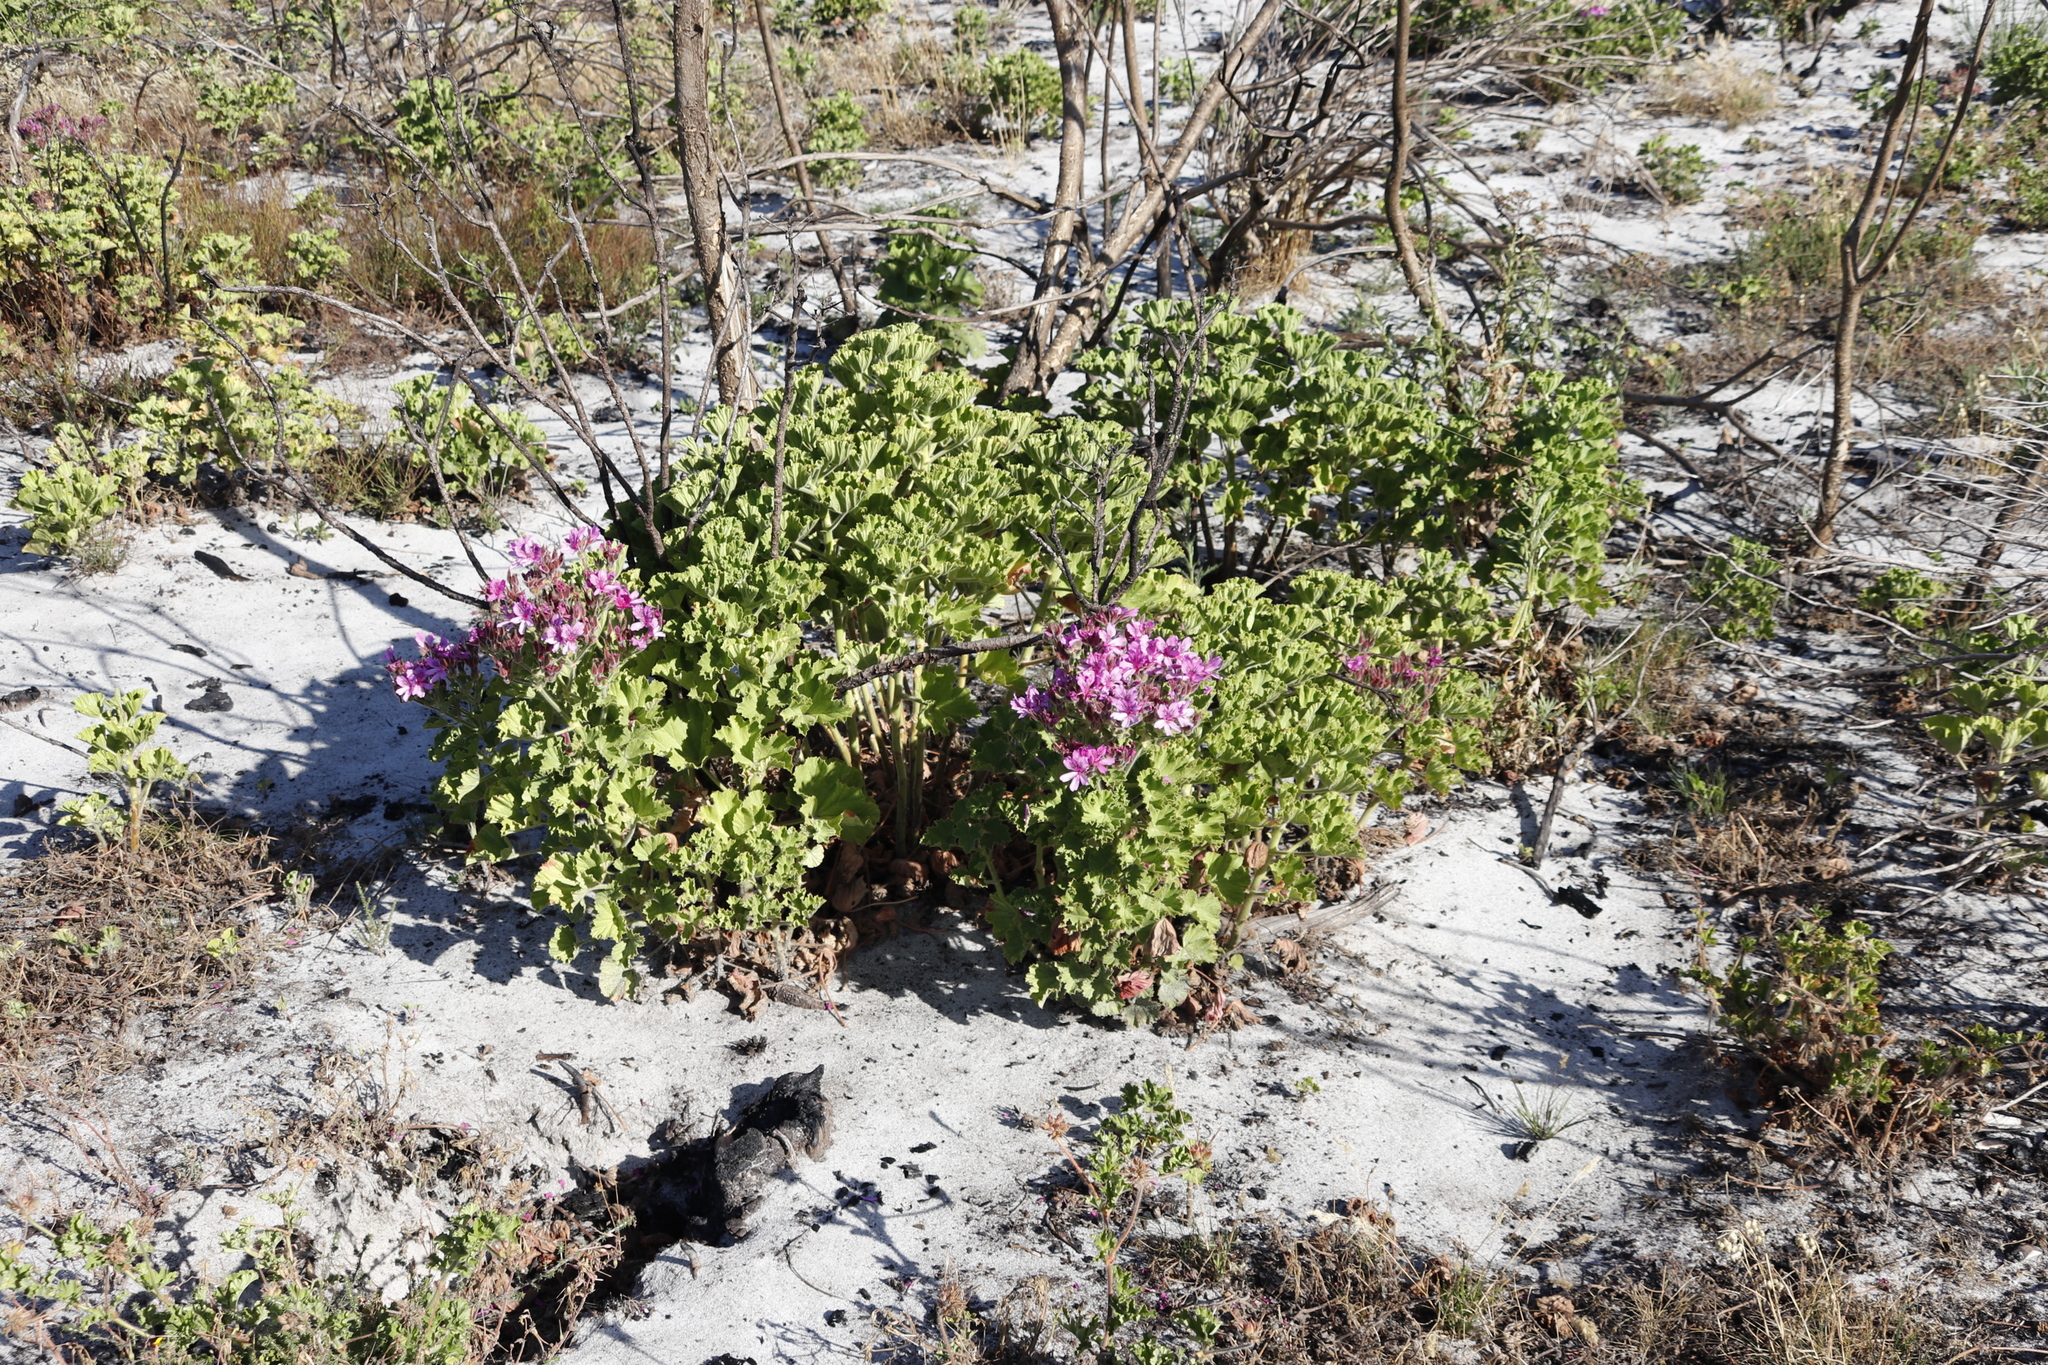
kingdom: Plantae
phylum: Tracheophyta
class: Magnoliopsida
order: Geraniales
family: Geraniaceae
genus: Pelargonium
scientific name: Pelargonium cucullatum
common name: Tree pelargonium
